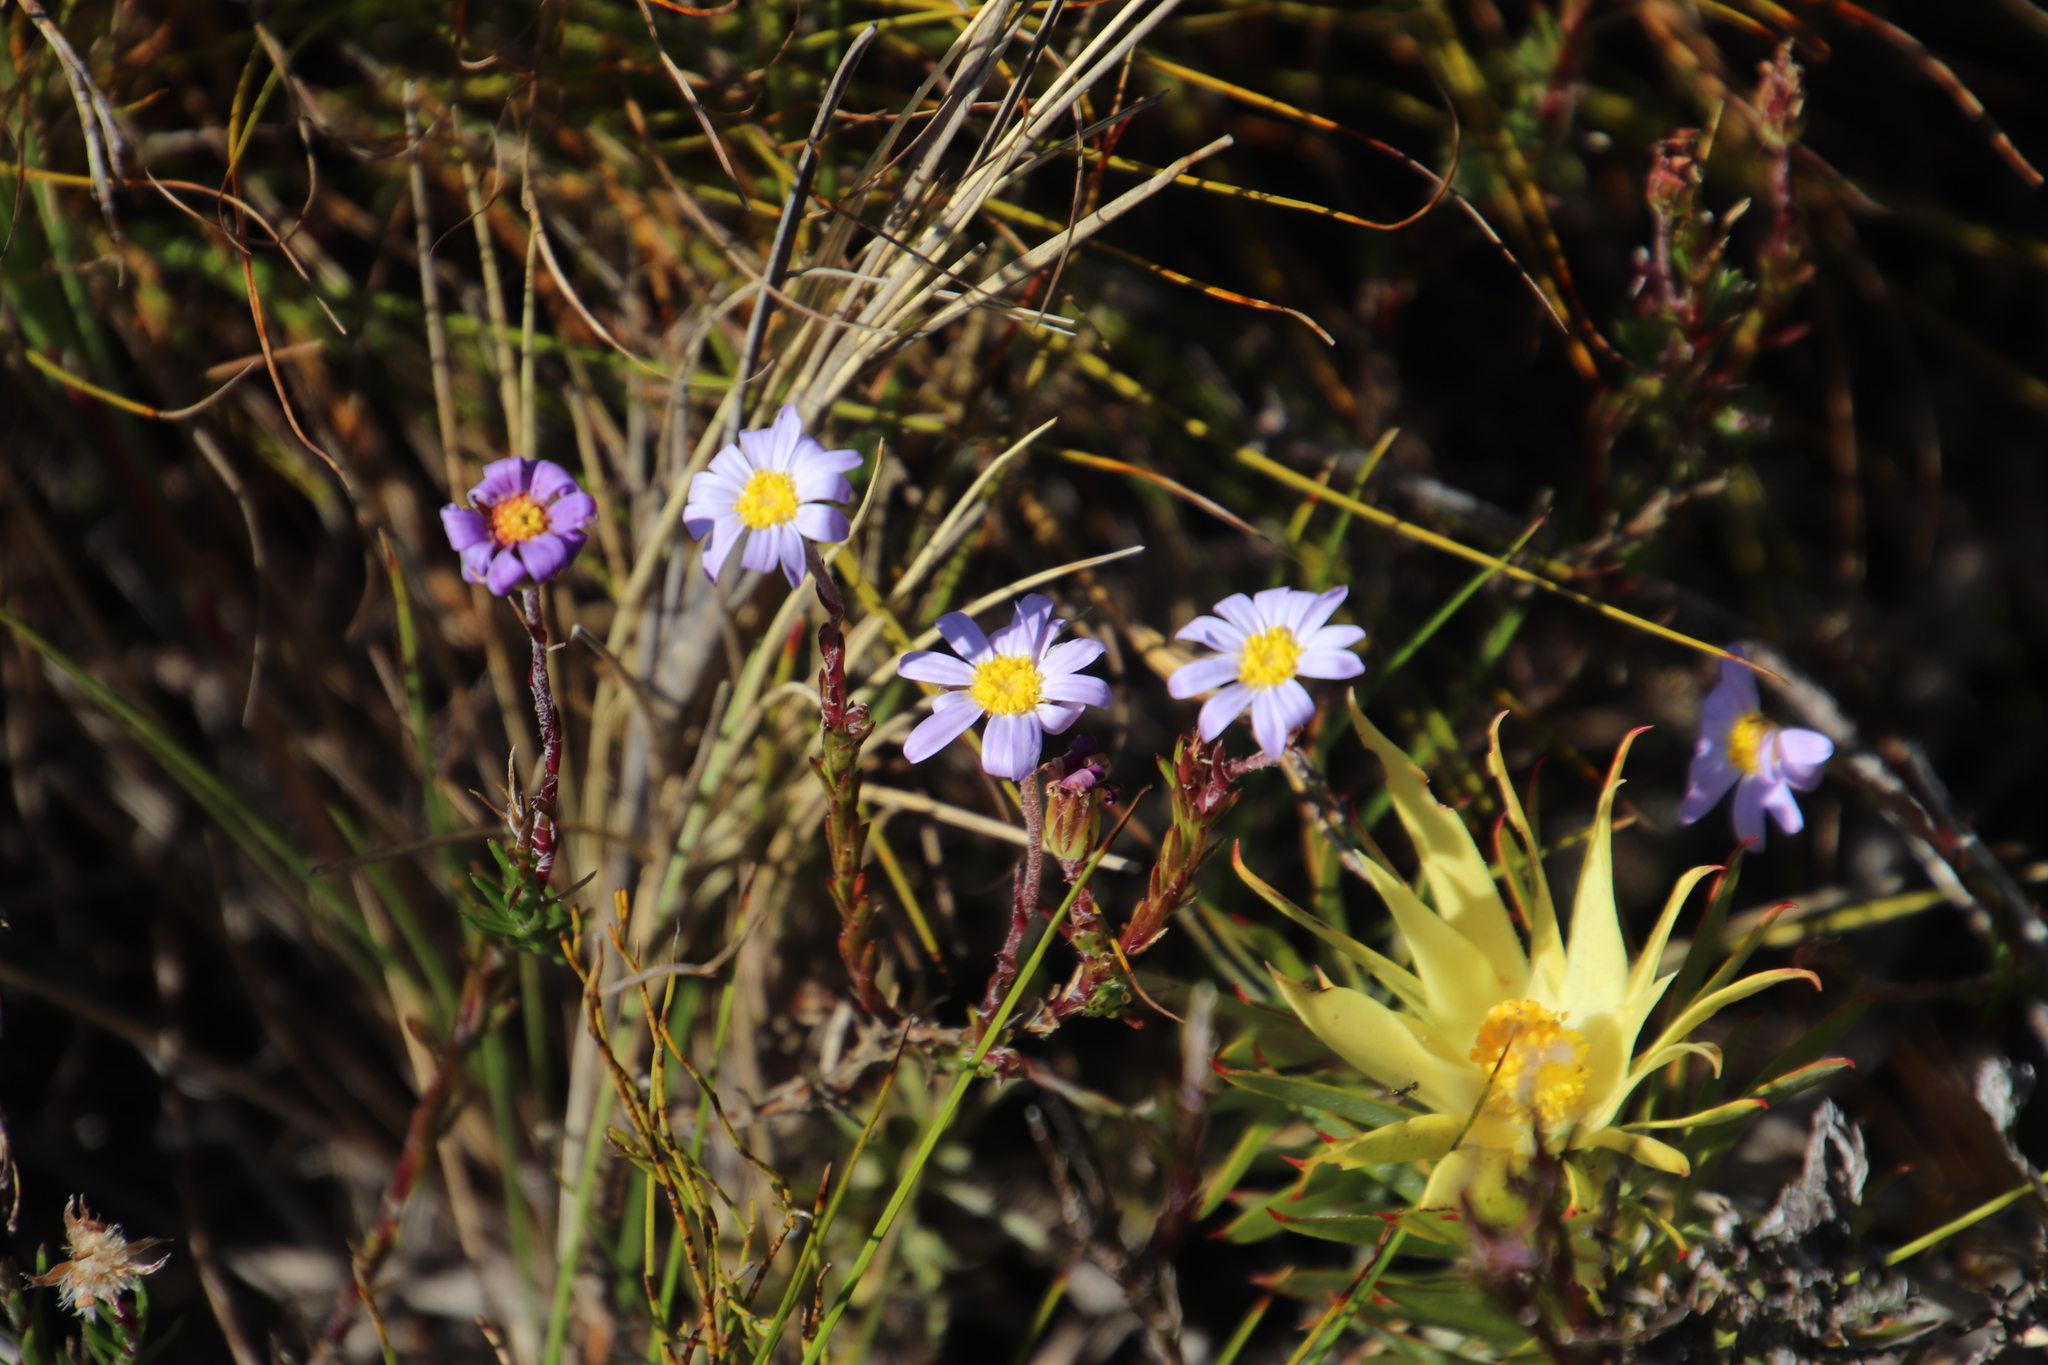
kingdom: Plantae
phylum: Tracheophyta
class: Magnoliopsida
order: Asterales
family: Asteraceae
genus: Zyrphelis
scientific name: Zyrphelis taxifolia
